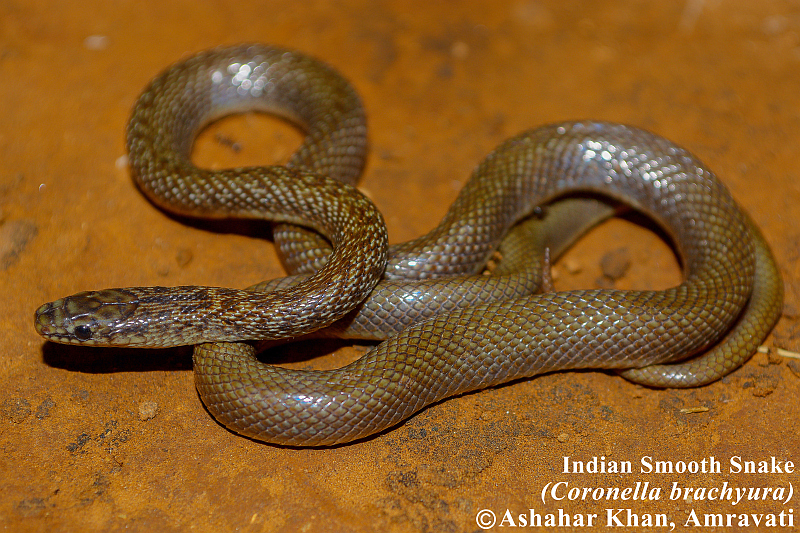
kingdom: Animalia
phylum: Chordata
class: Squamata
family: Colubridae
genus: Wallophis
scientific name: Wallophis
